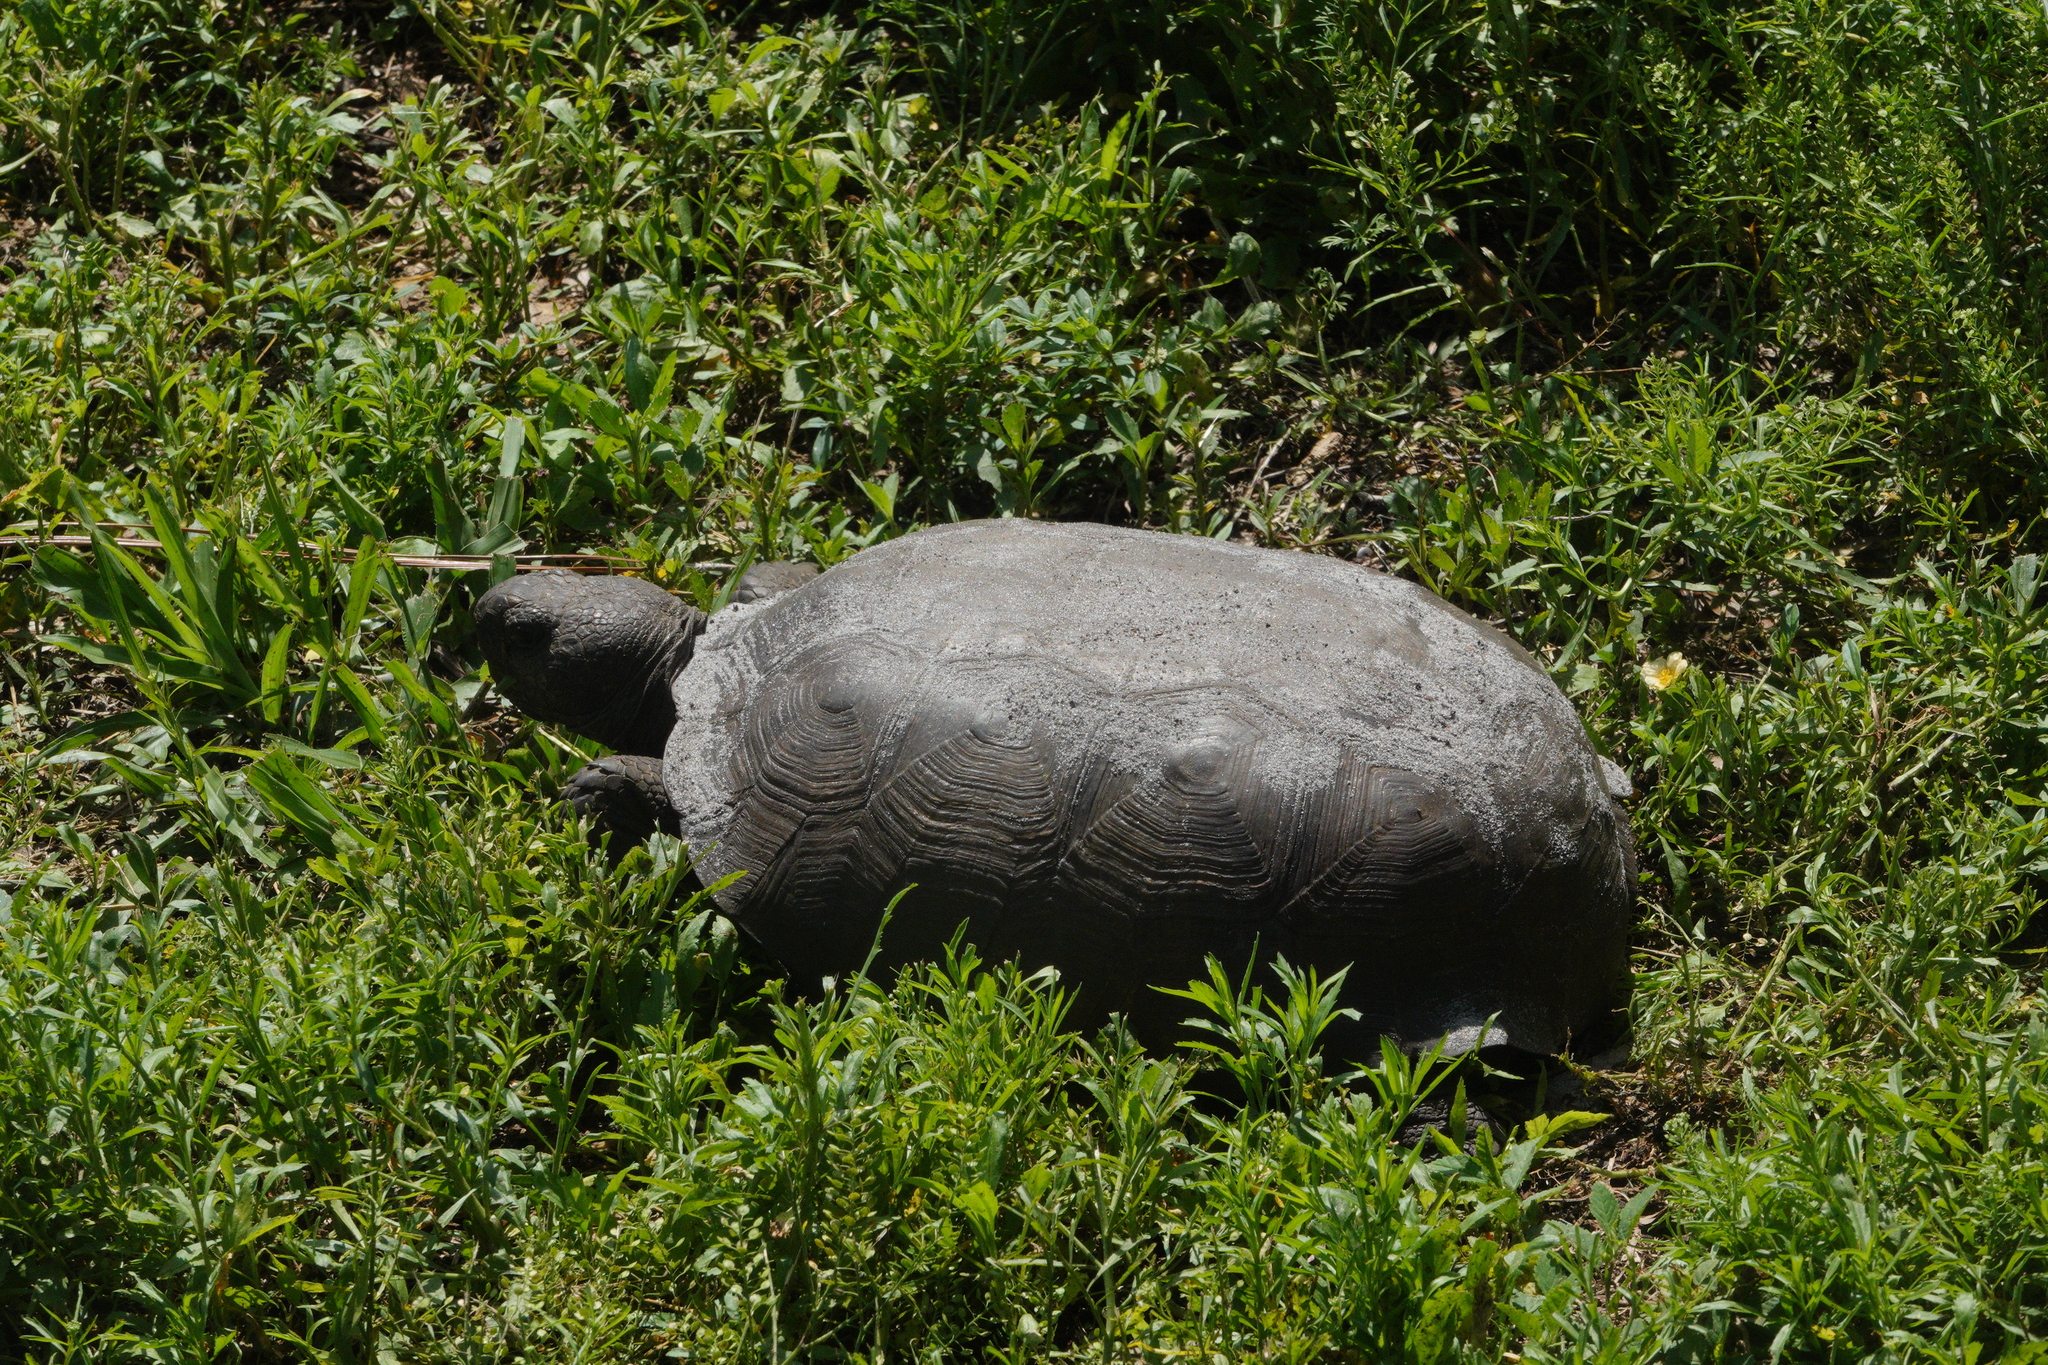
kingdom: Animalia
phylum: Chordata
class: Testudines
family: Testudinidae
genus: Gopherus
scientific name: Gopherus polyphemus
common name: Florida gopher tortoise
